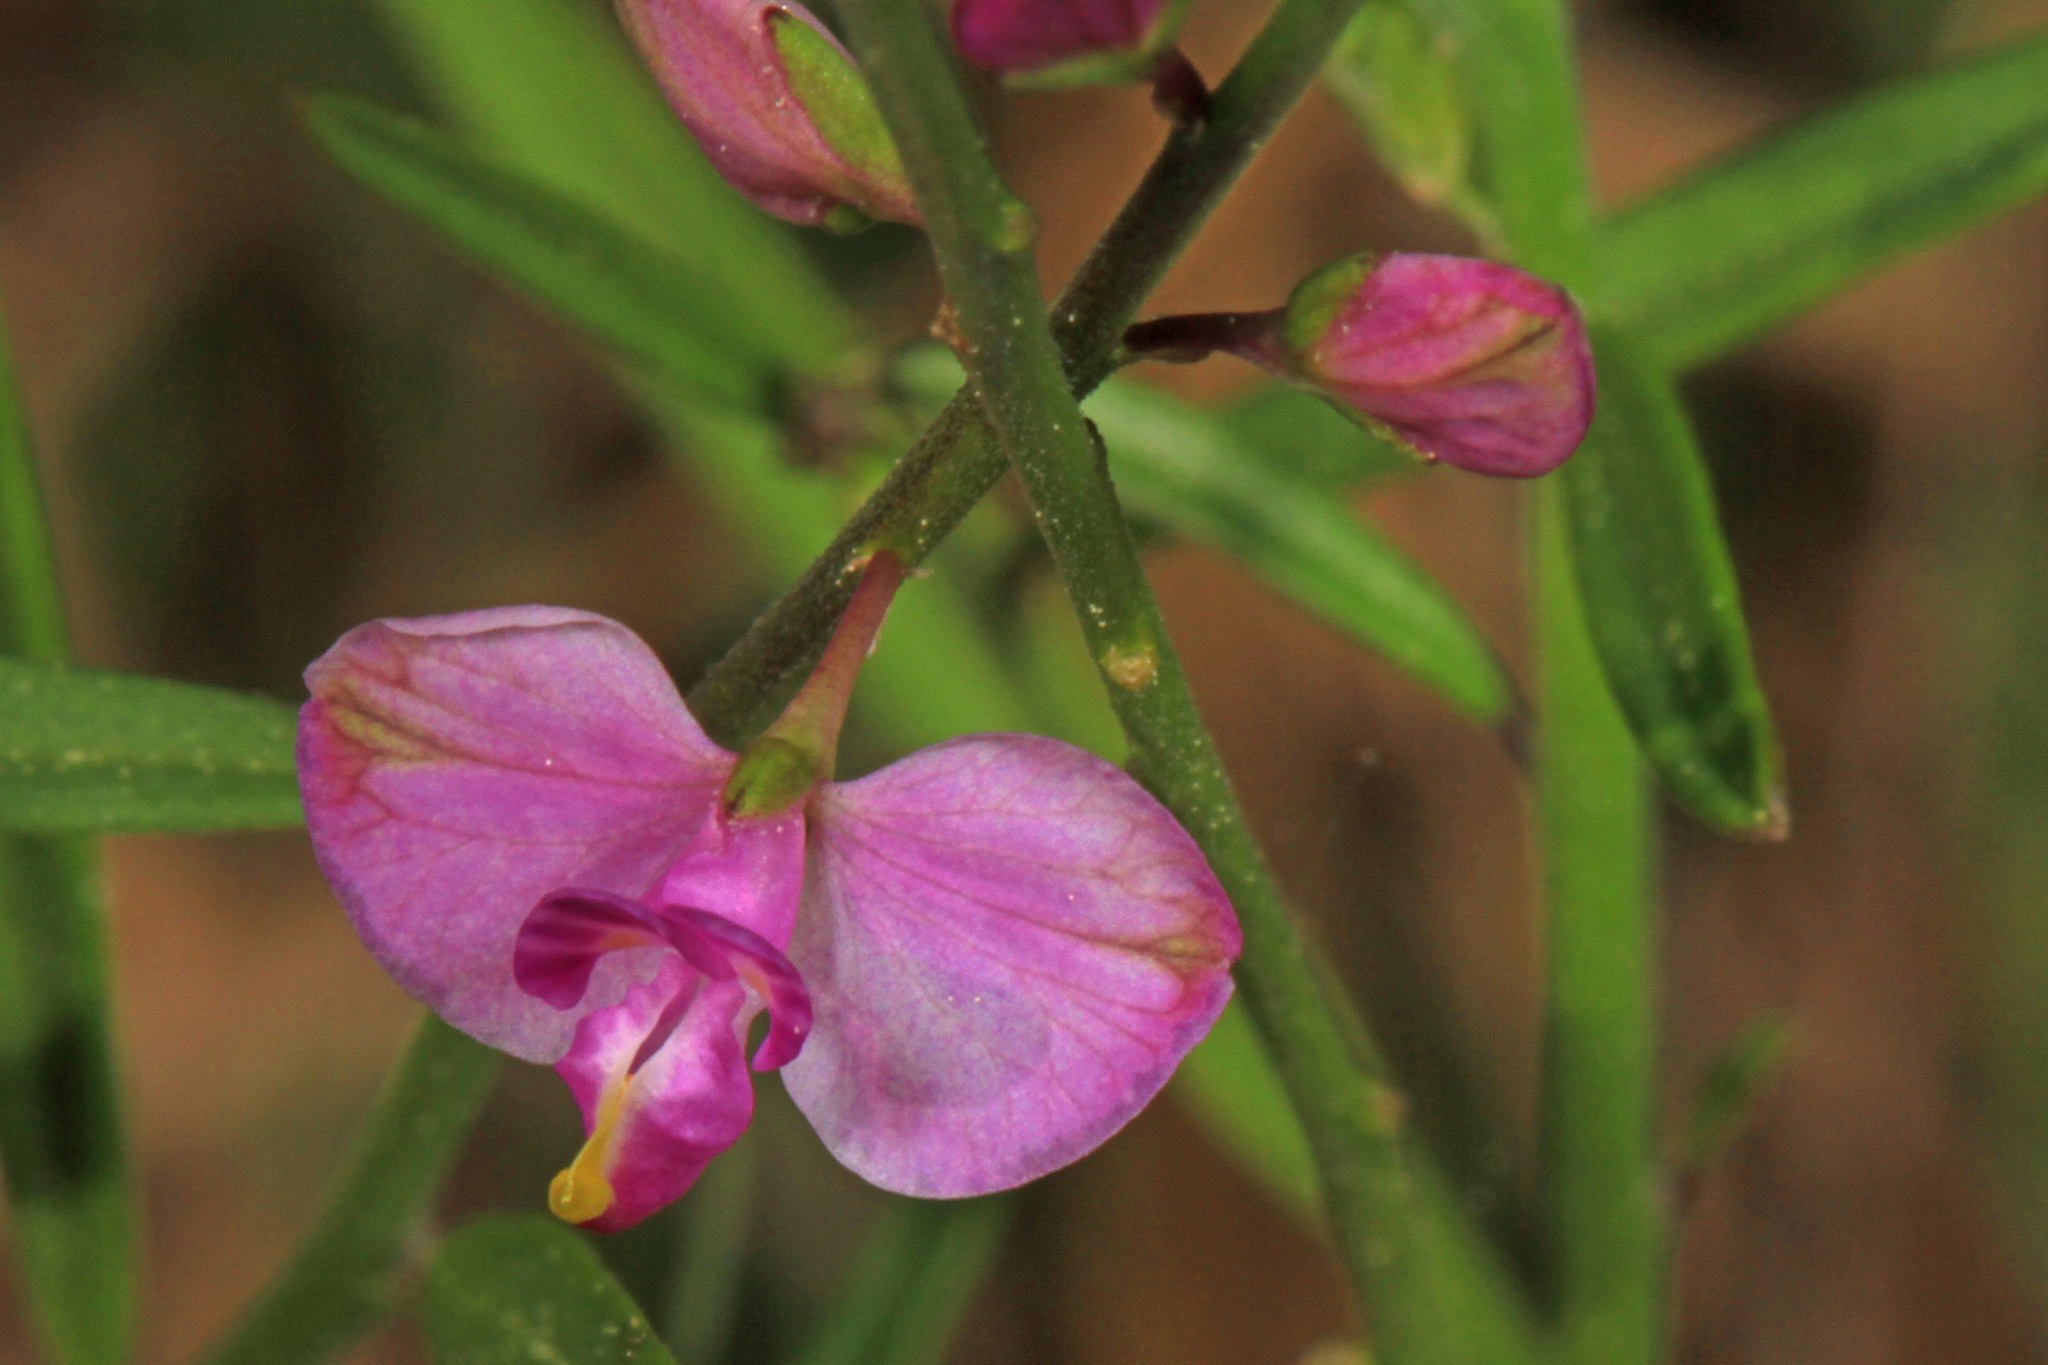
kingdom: Plantae
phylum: Tracheophyta
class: Magnoliopsida
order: Fabales
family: Polygalaceae
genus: Asemeia
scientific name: Asemeia grandiflora
